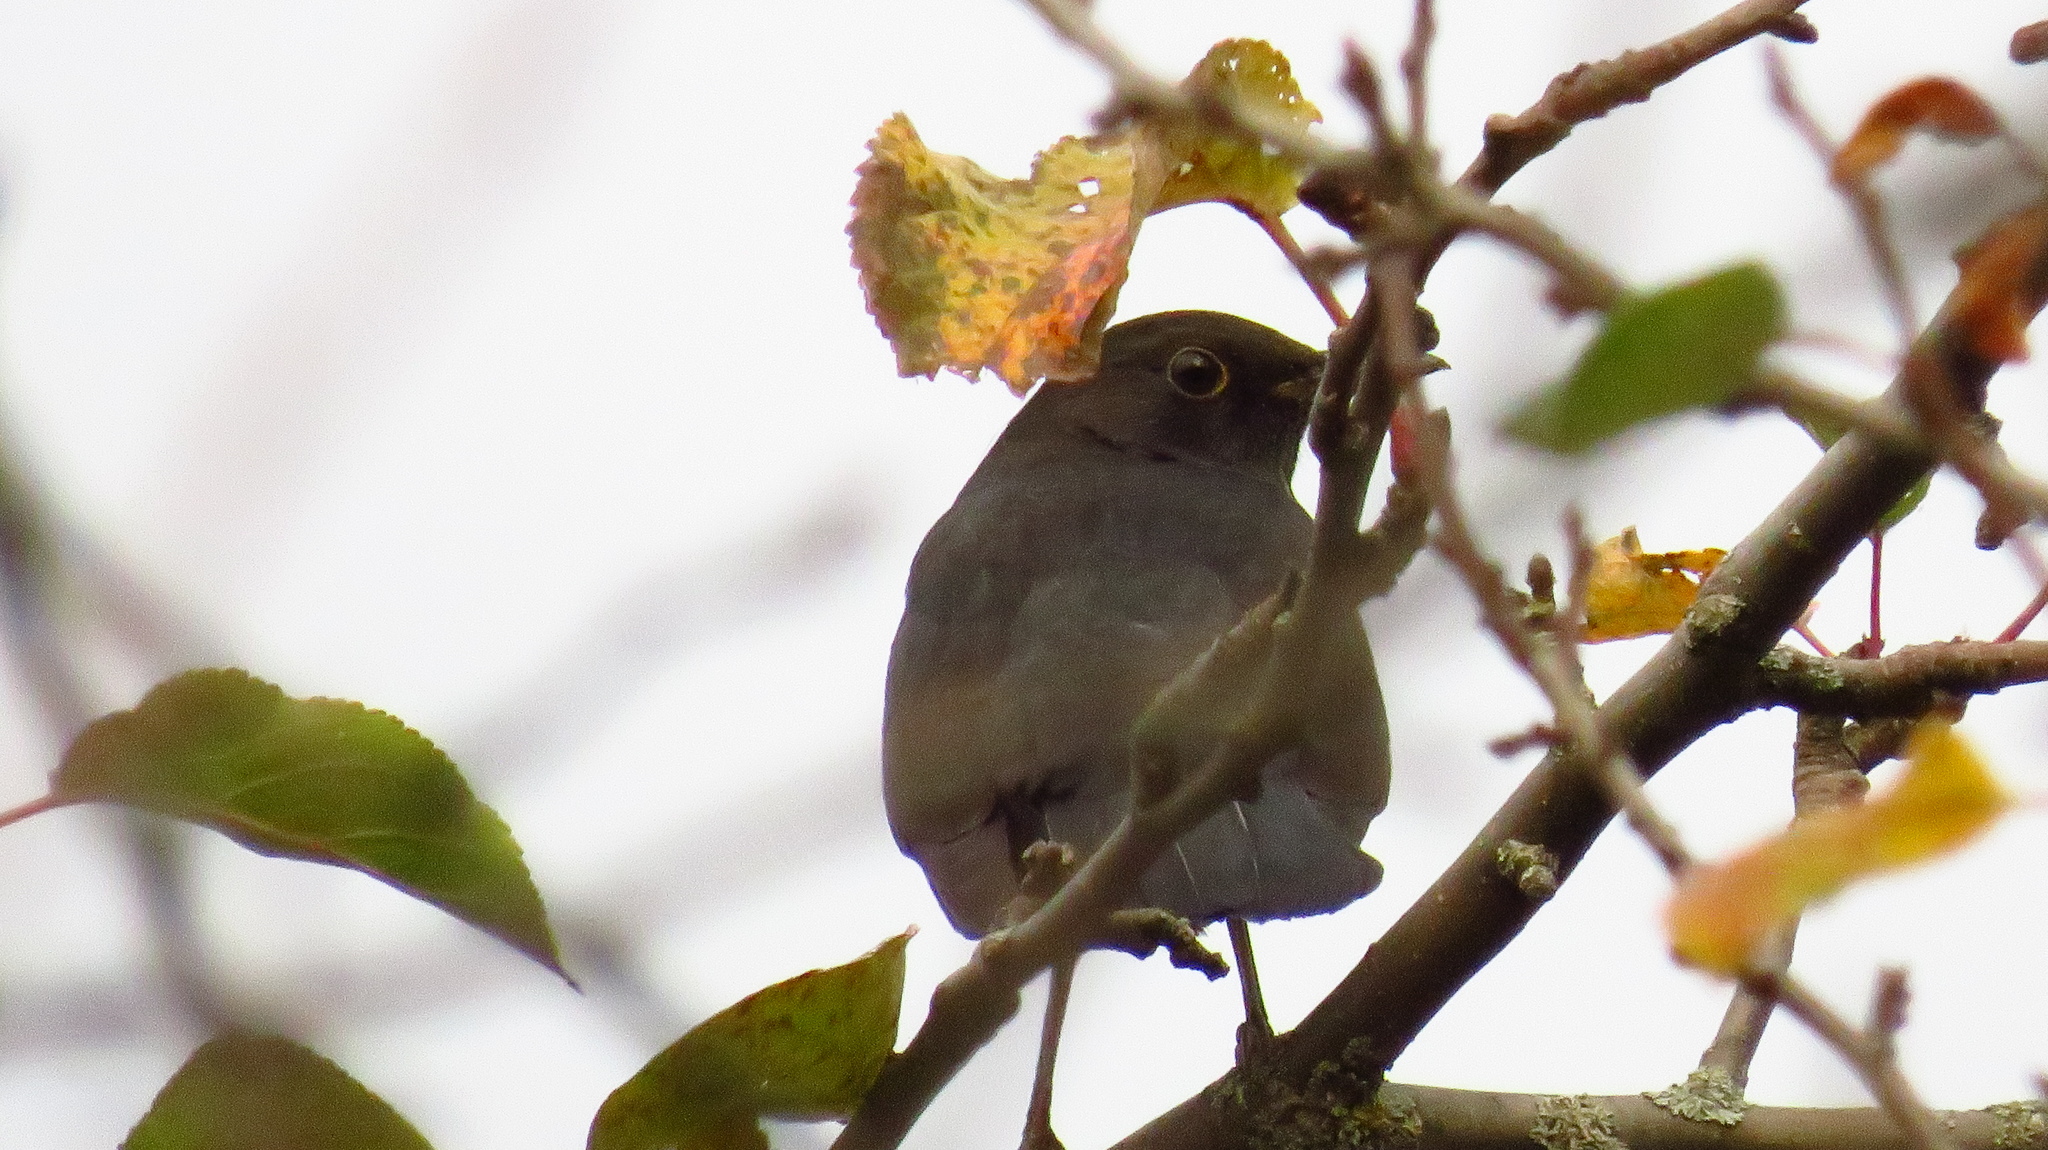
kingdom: Animalia
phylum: Chordata
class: Aves
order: Passeriformes
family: Turdidae
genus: Turdus
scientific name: Turdus merula
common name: Common blackbird
